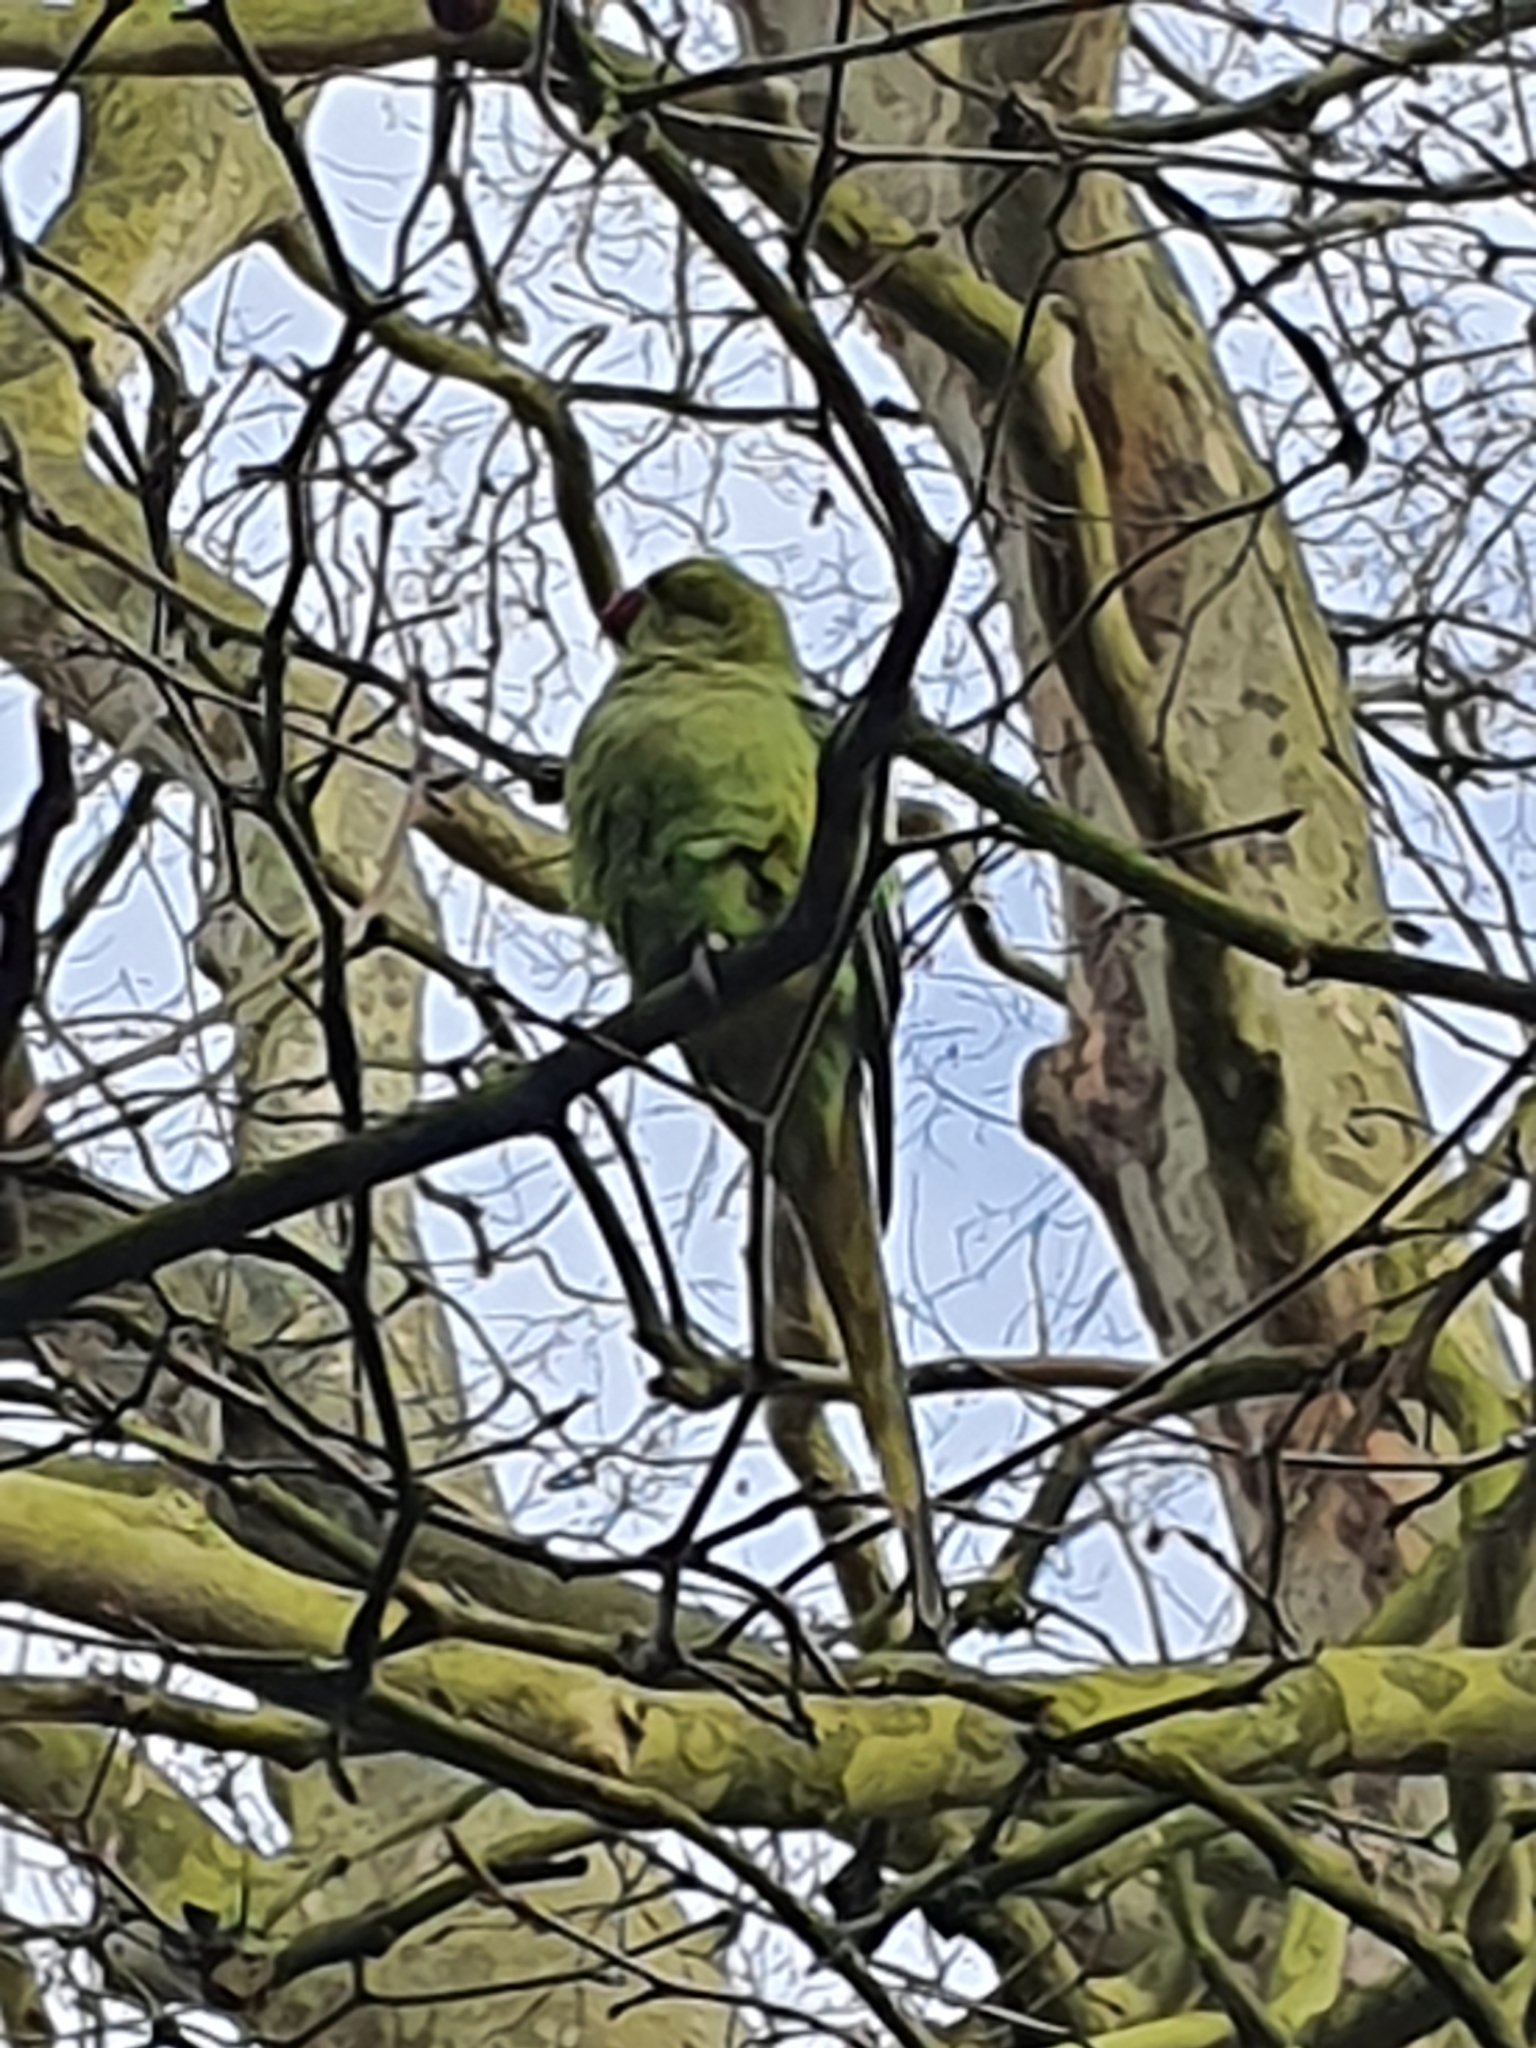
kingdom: Animalia
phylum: Chordata
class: Aves
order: Psittaciformes
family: Psittacidae
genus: Psittacula
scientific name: Psittacula krameri
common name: Rose-ringed parakeet
